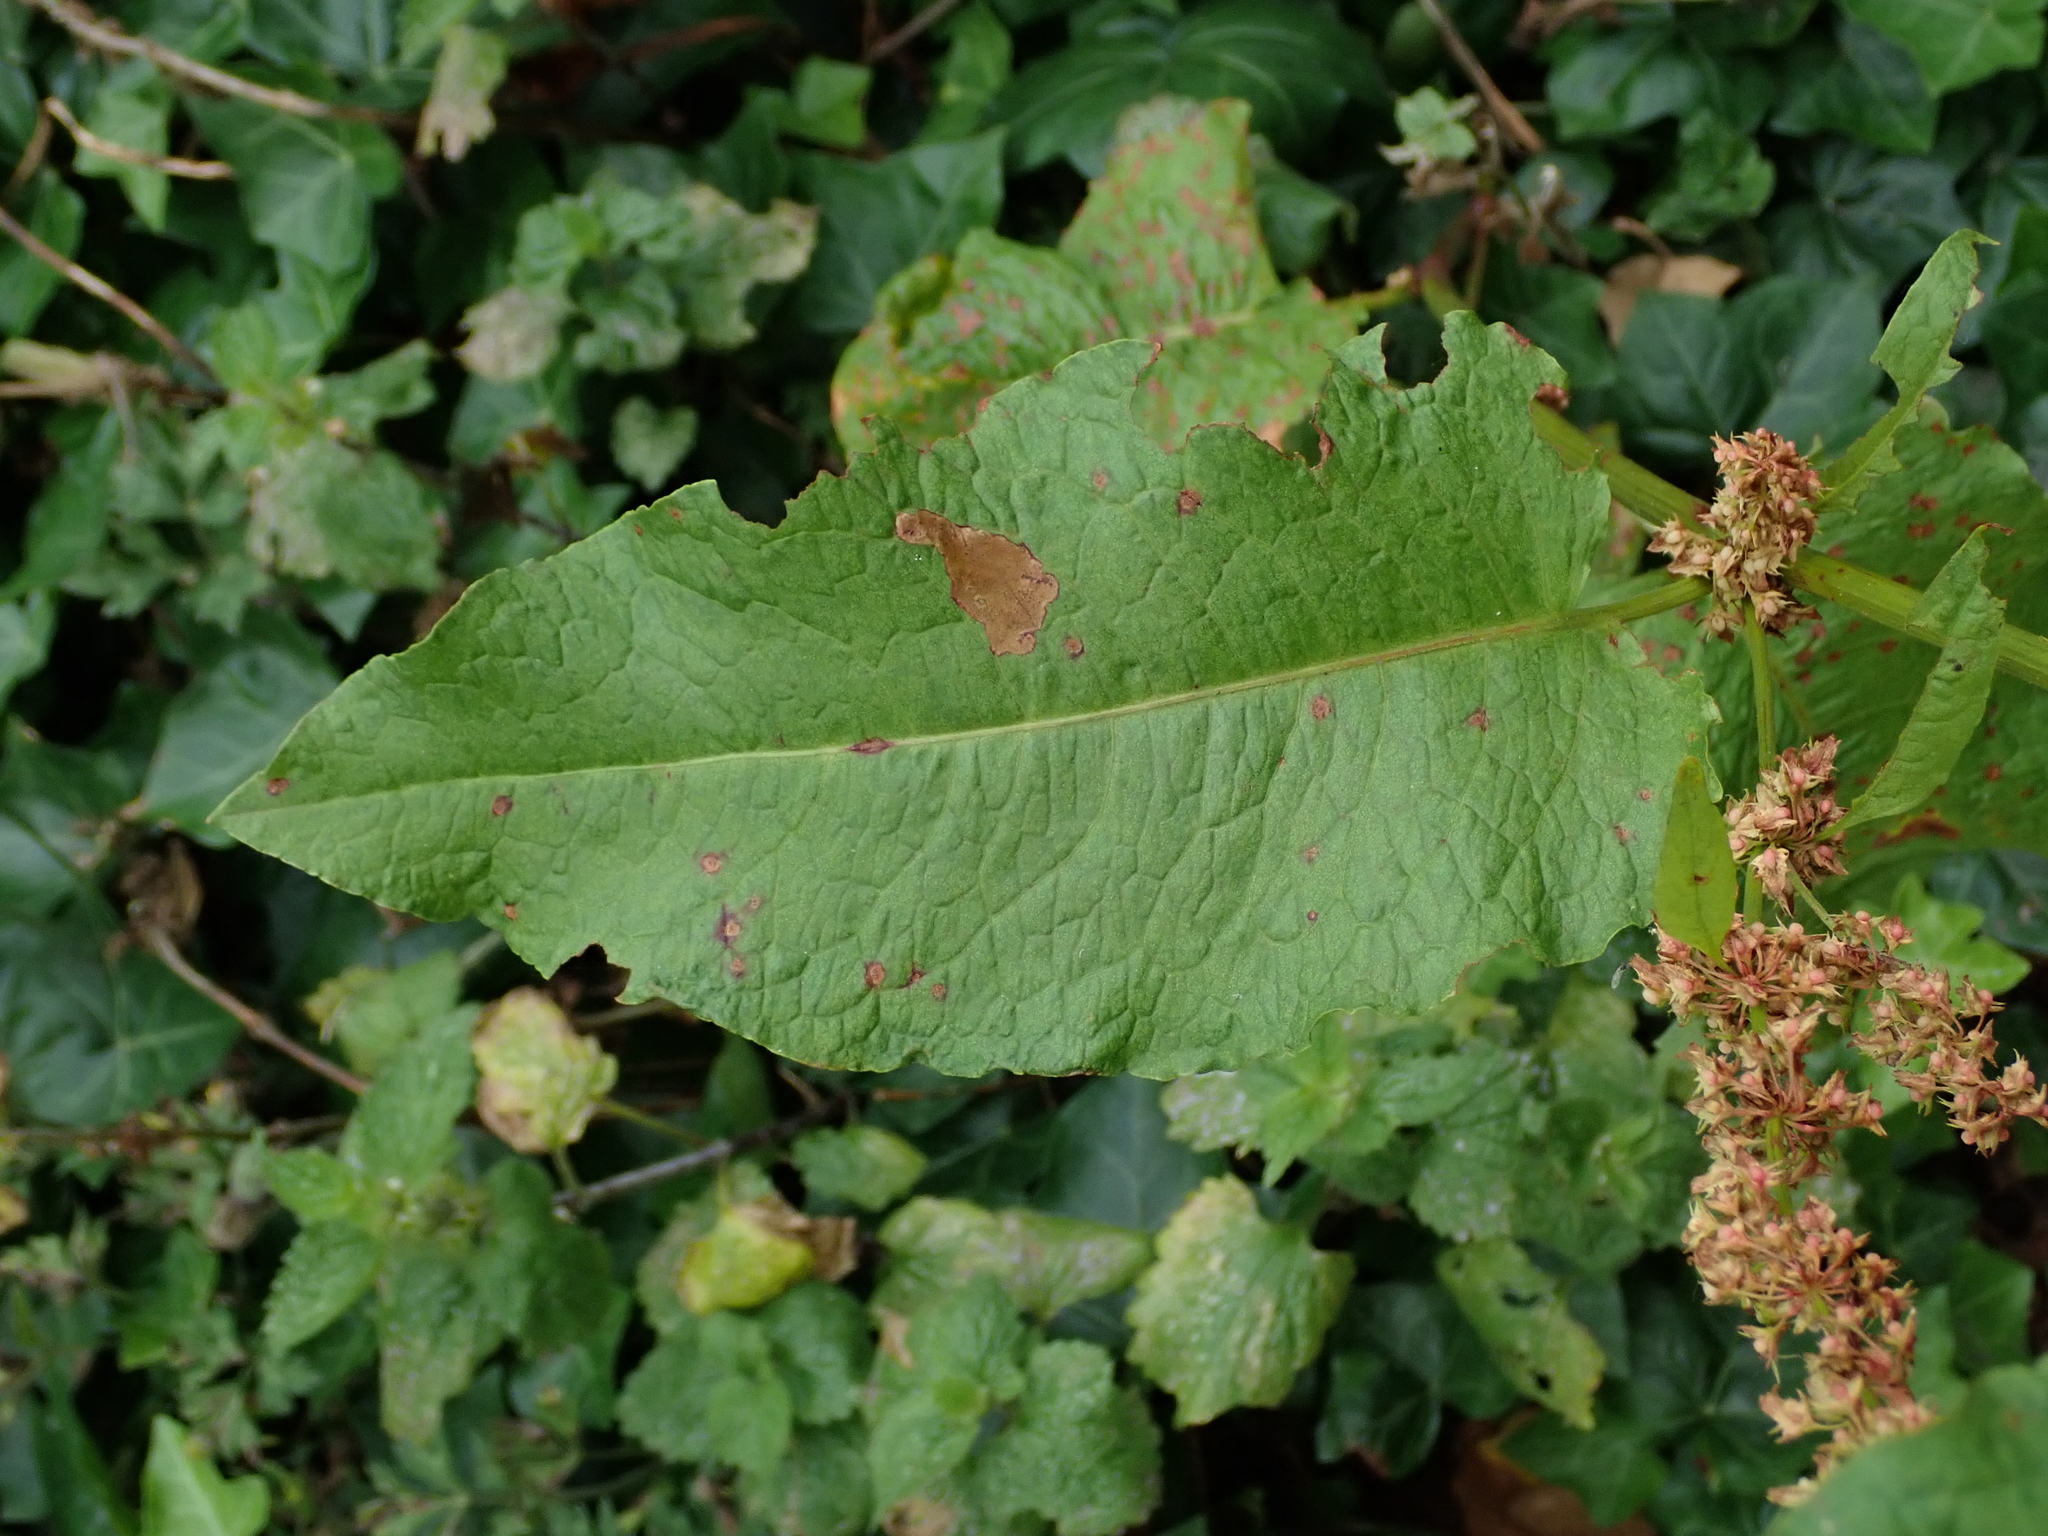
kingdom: Plantae
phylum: Tracheophyta
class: Magnoliopsida
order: Caryophyllales
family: Polygonaceae
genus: Rumex
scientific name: Rumex obtusifolius
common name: Bitter dock
